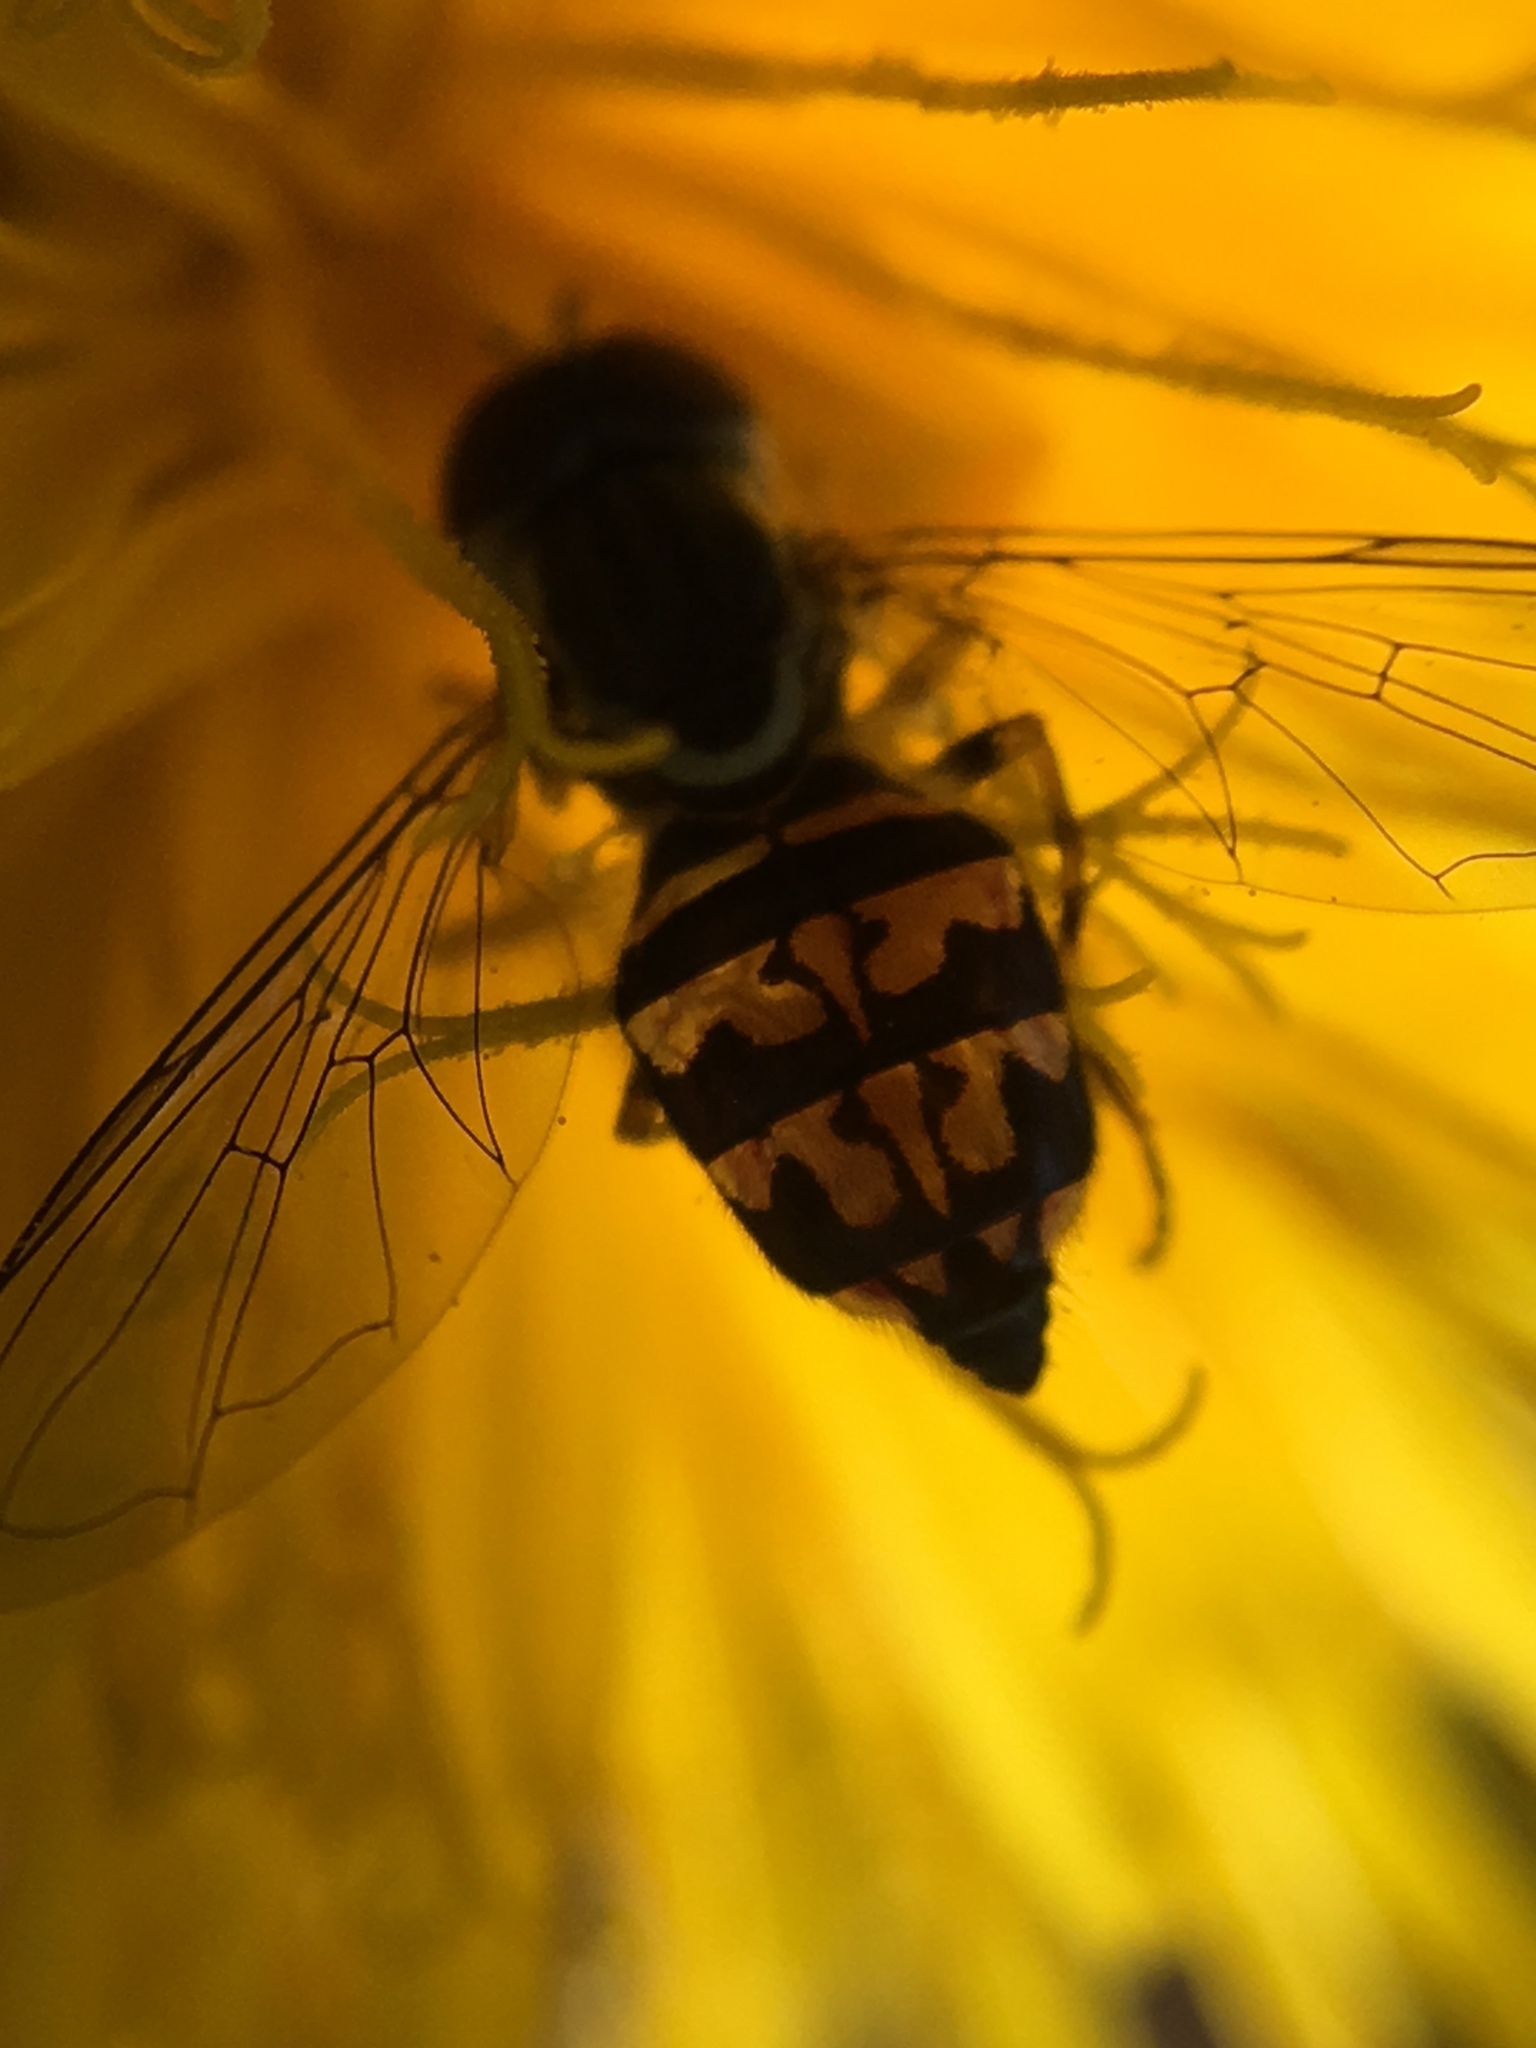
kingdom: Animalia
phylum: Arthropoda
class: Insecta
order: Diptera
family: Syrphidae
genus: Toxomerus
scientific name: Toxomerus geminatus
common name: Eastern calligrapher
